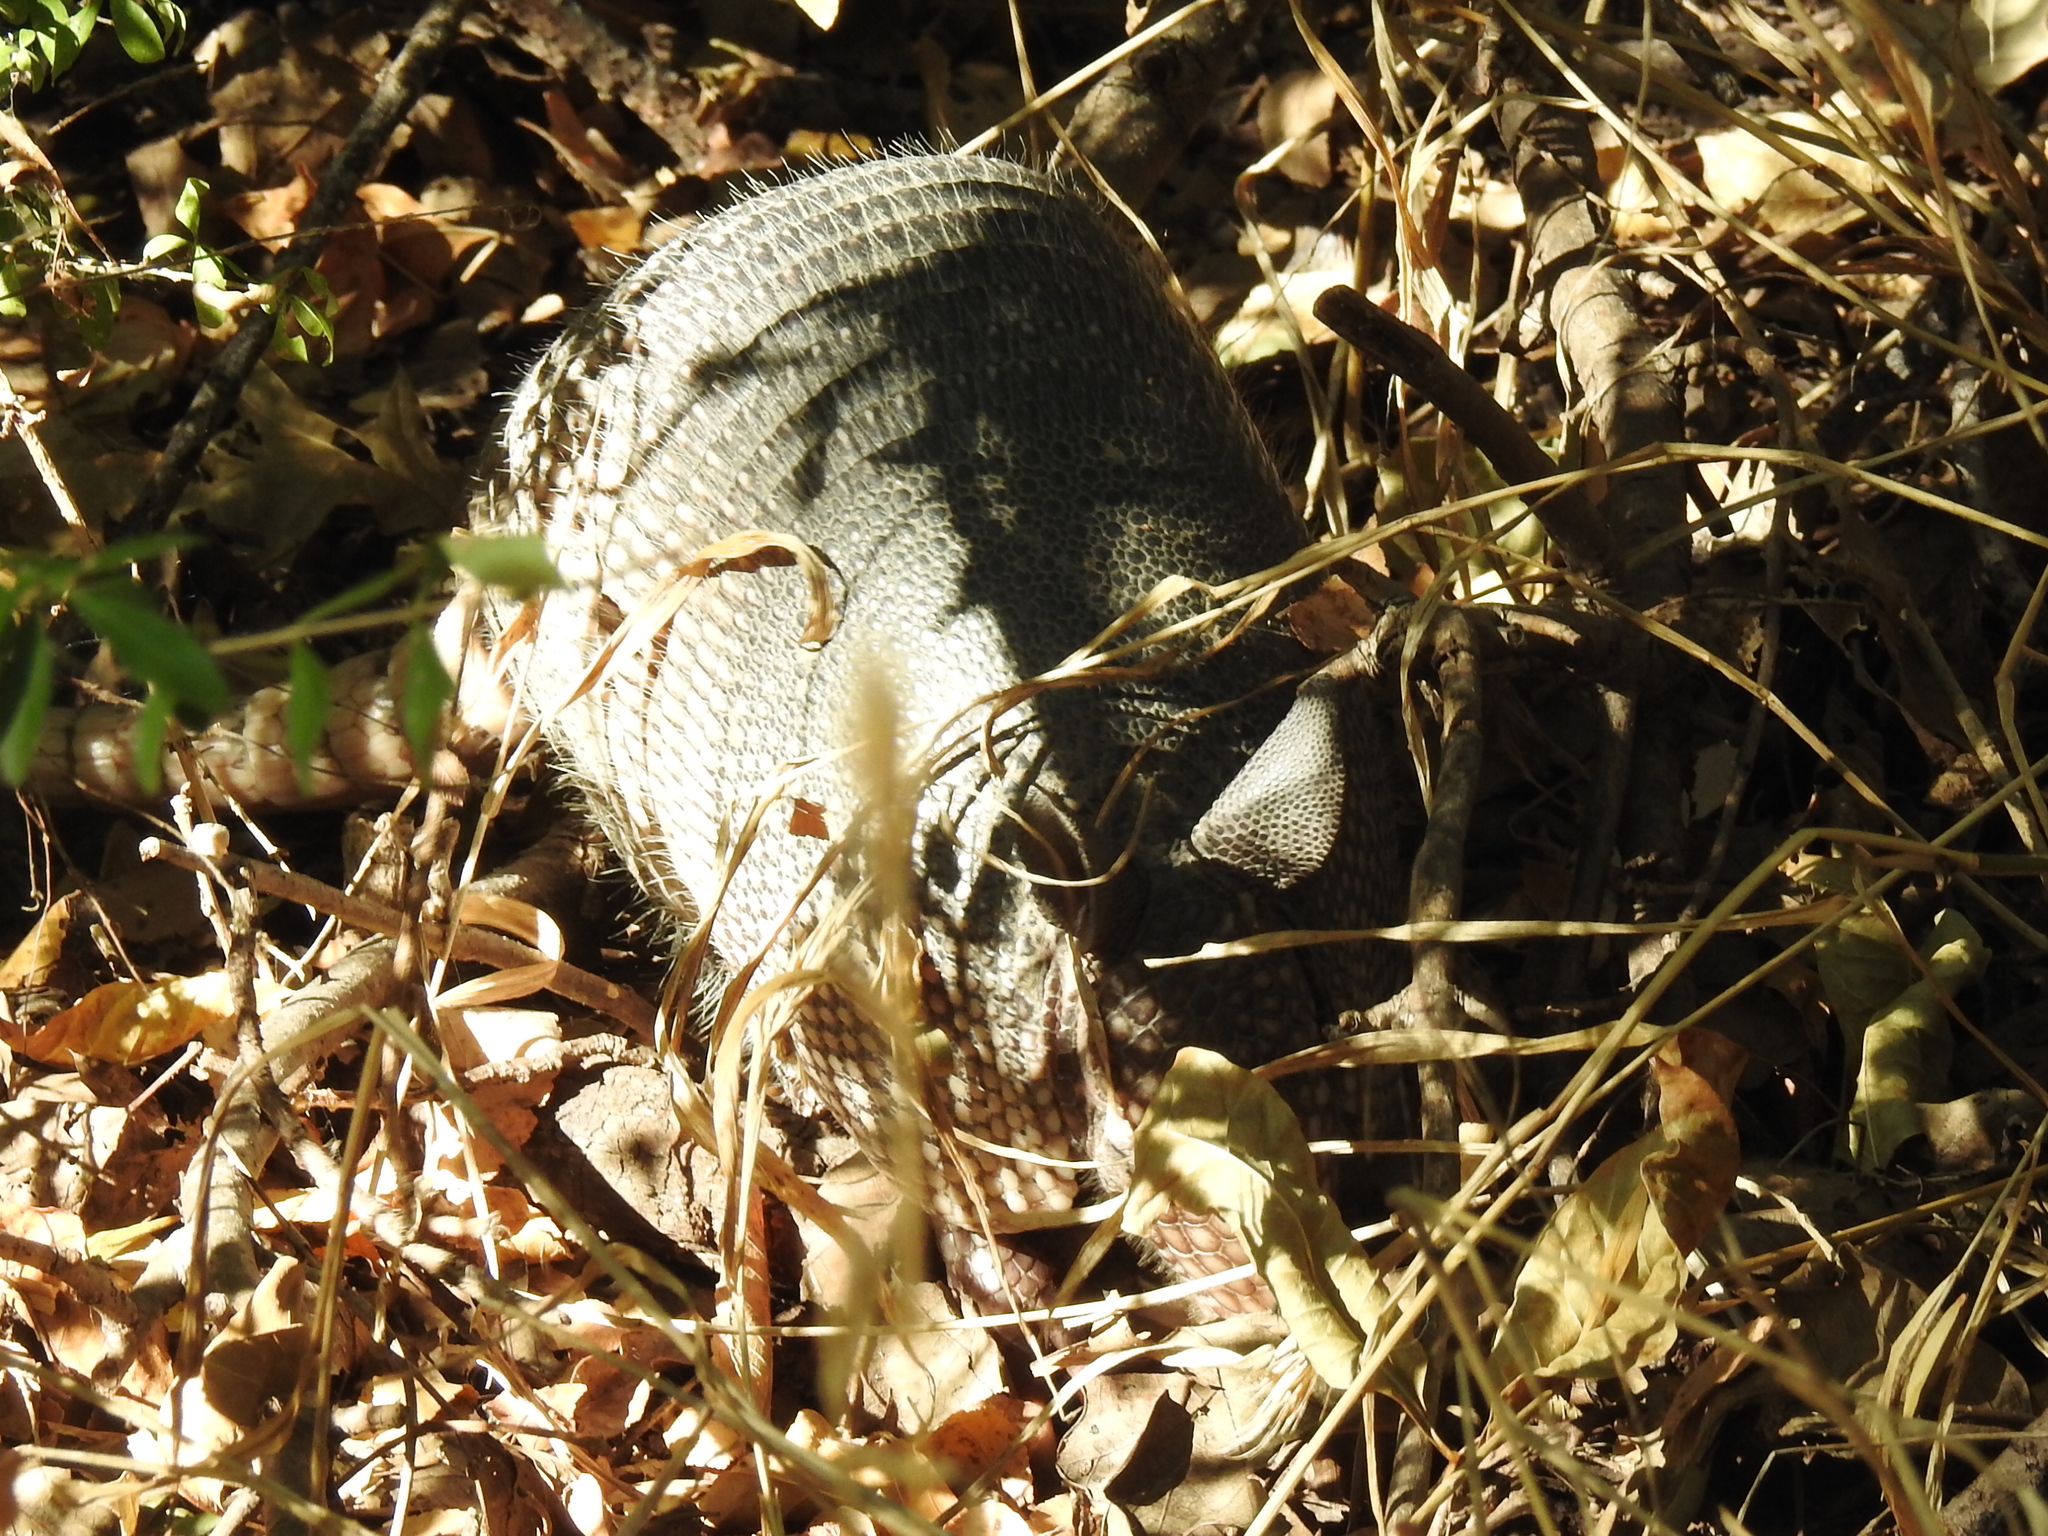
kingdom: Animalia
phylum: Chordata
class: Mammalia
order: Cingulata
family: Dasypodidae
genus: Dasypus
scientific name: Dasypus novemcinctus
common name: Nine-banded armadillo
